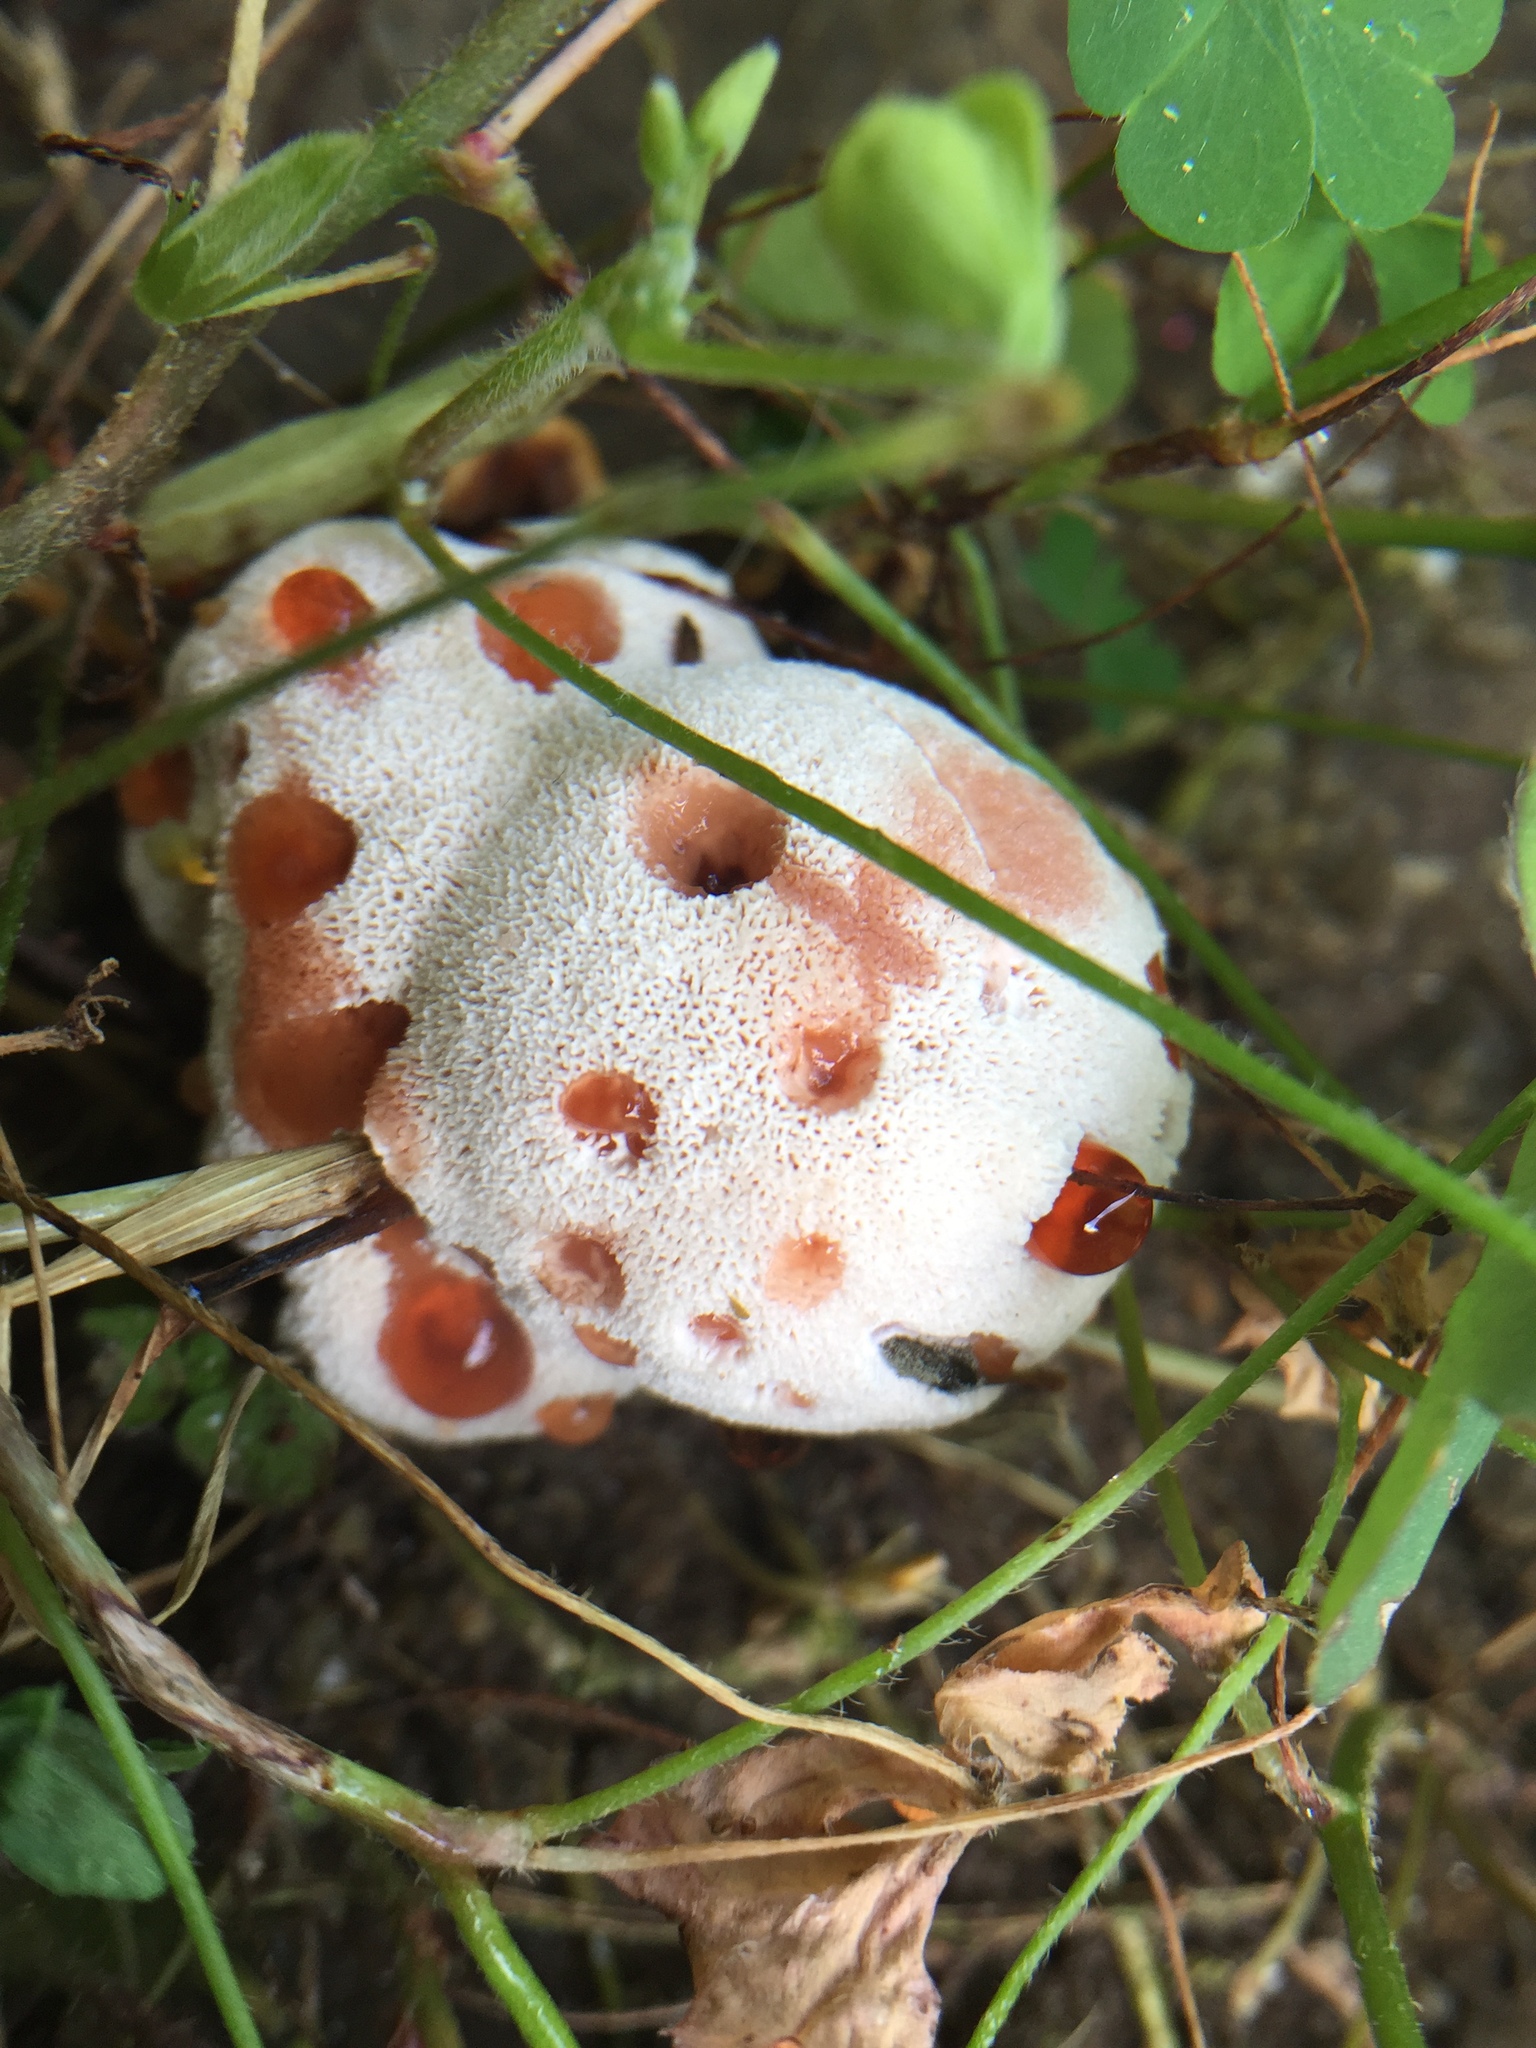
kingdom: Fungi
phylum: Basidiomycota
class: Agaricomycetes
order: Polyporales
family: Podoscyphaceae
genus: Abortiporus
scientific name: Abortiporus biennis
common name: Blushing rosette
